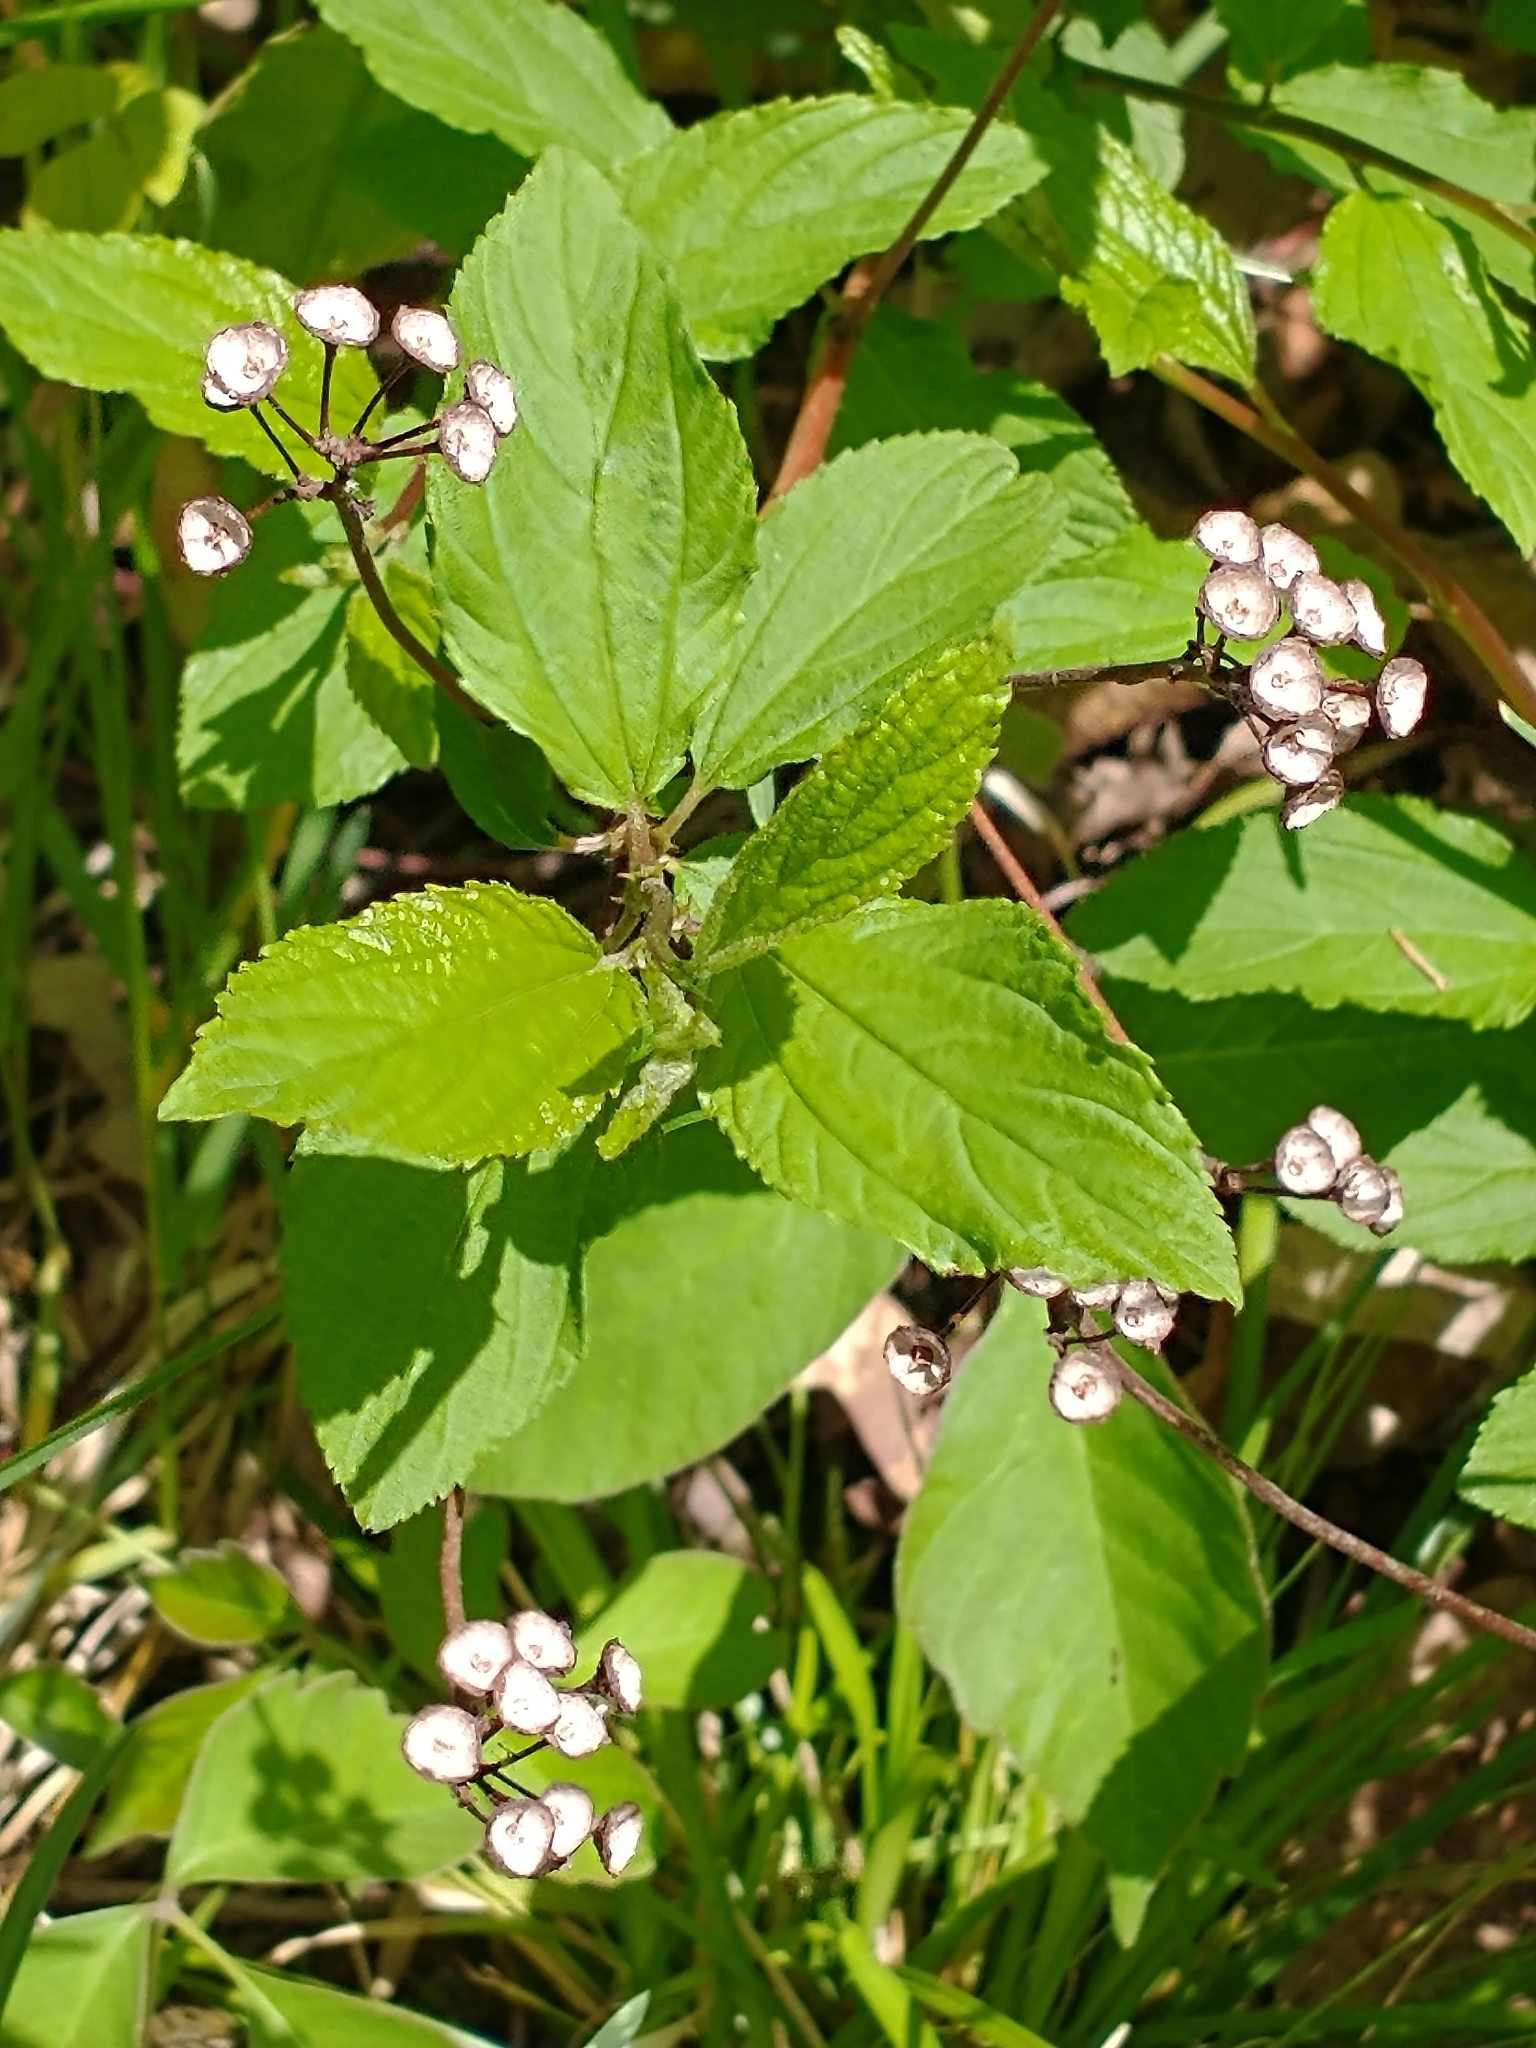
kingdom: Plantae
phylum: Tracheophyta
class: Magnoliopsida
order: Rosales
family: Rhamnaceae
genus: Ceanothus
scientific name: Ceanothus americanus
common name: Redroot
